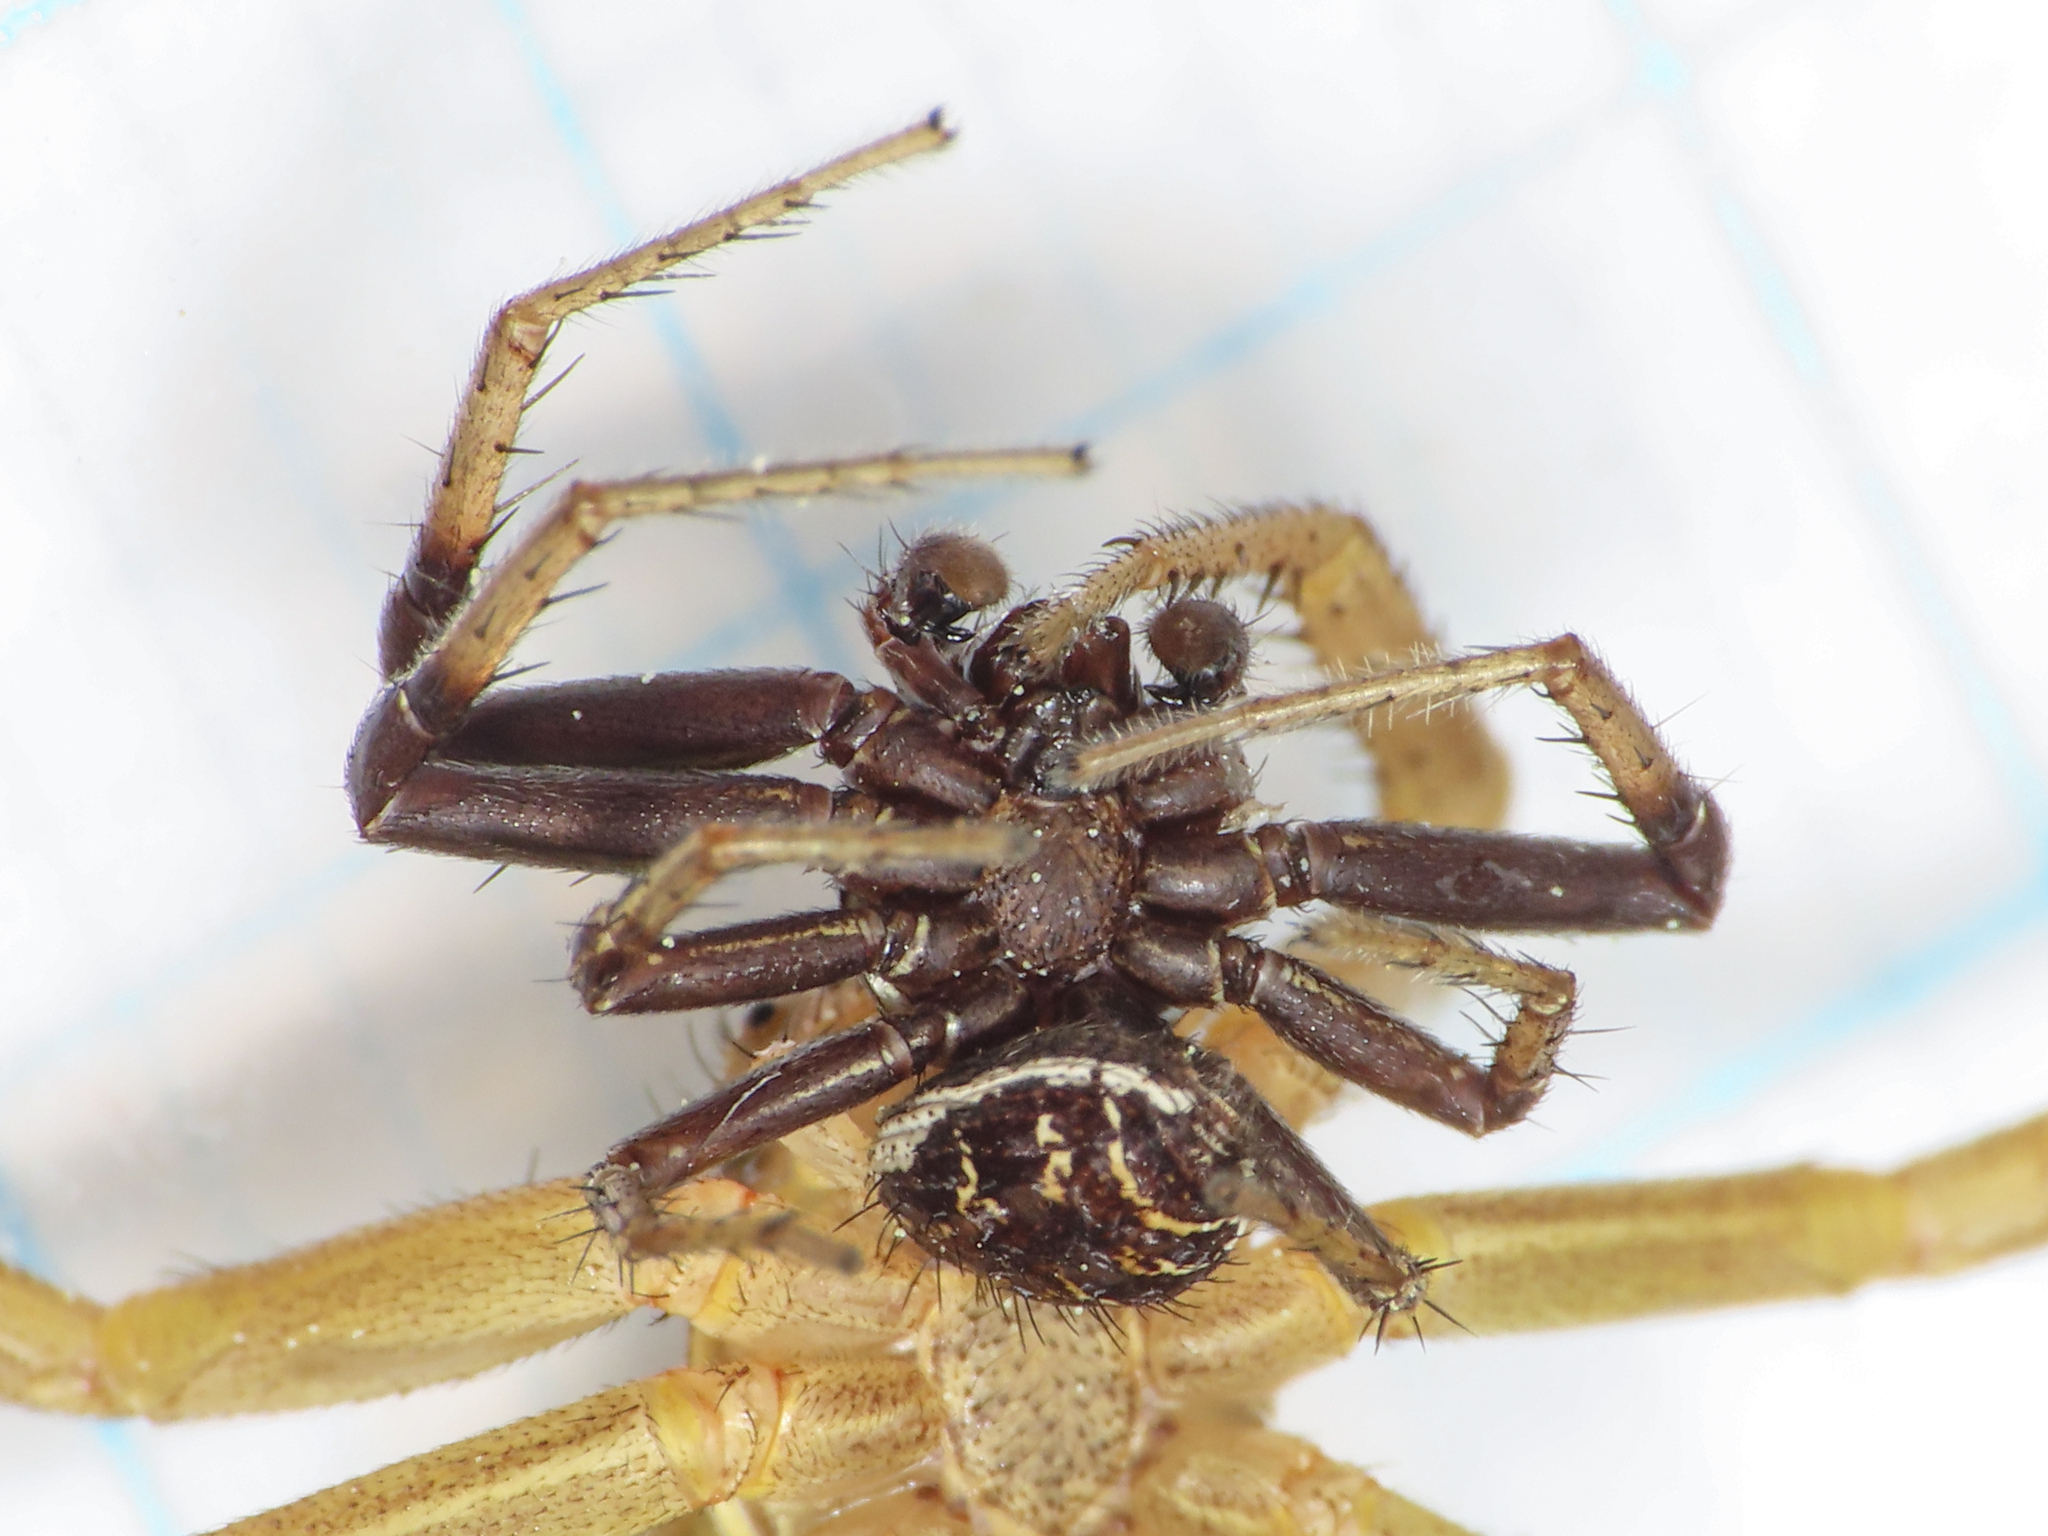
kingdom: Animalia
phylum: Arthropoda
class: Arachnida
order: Araneae
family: Thomisidae
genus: Xysticus
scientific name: Xysticus kochi
